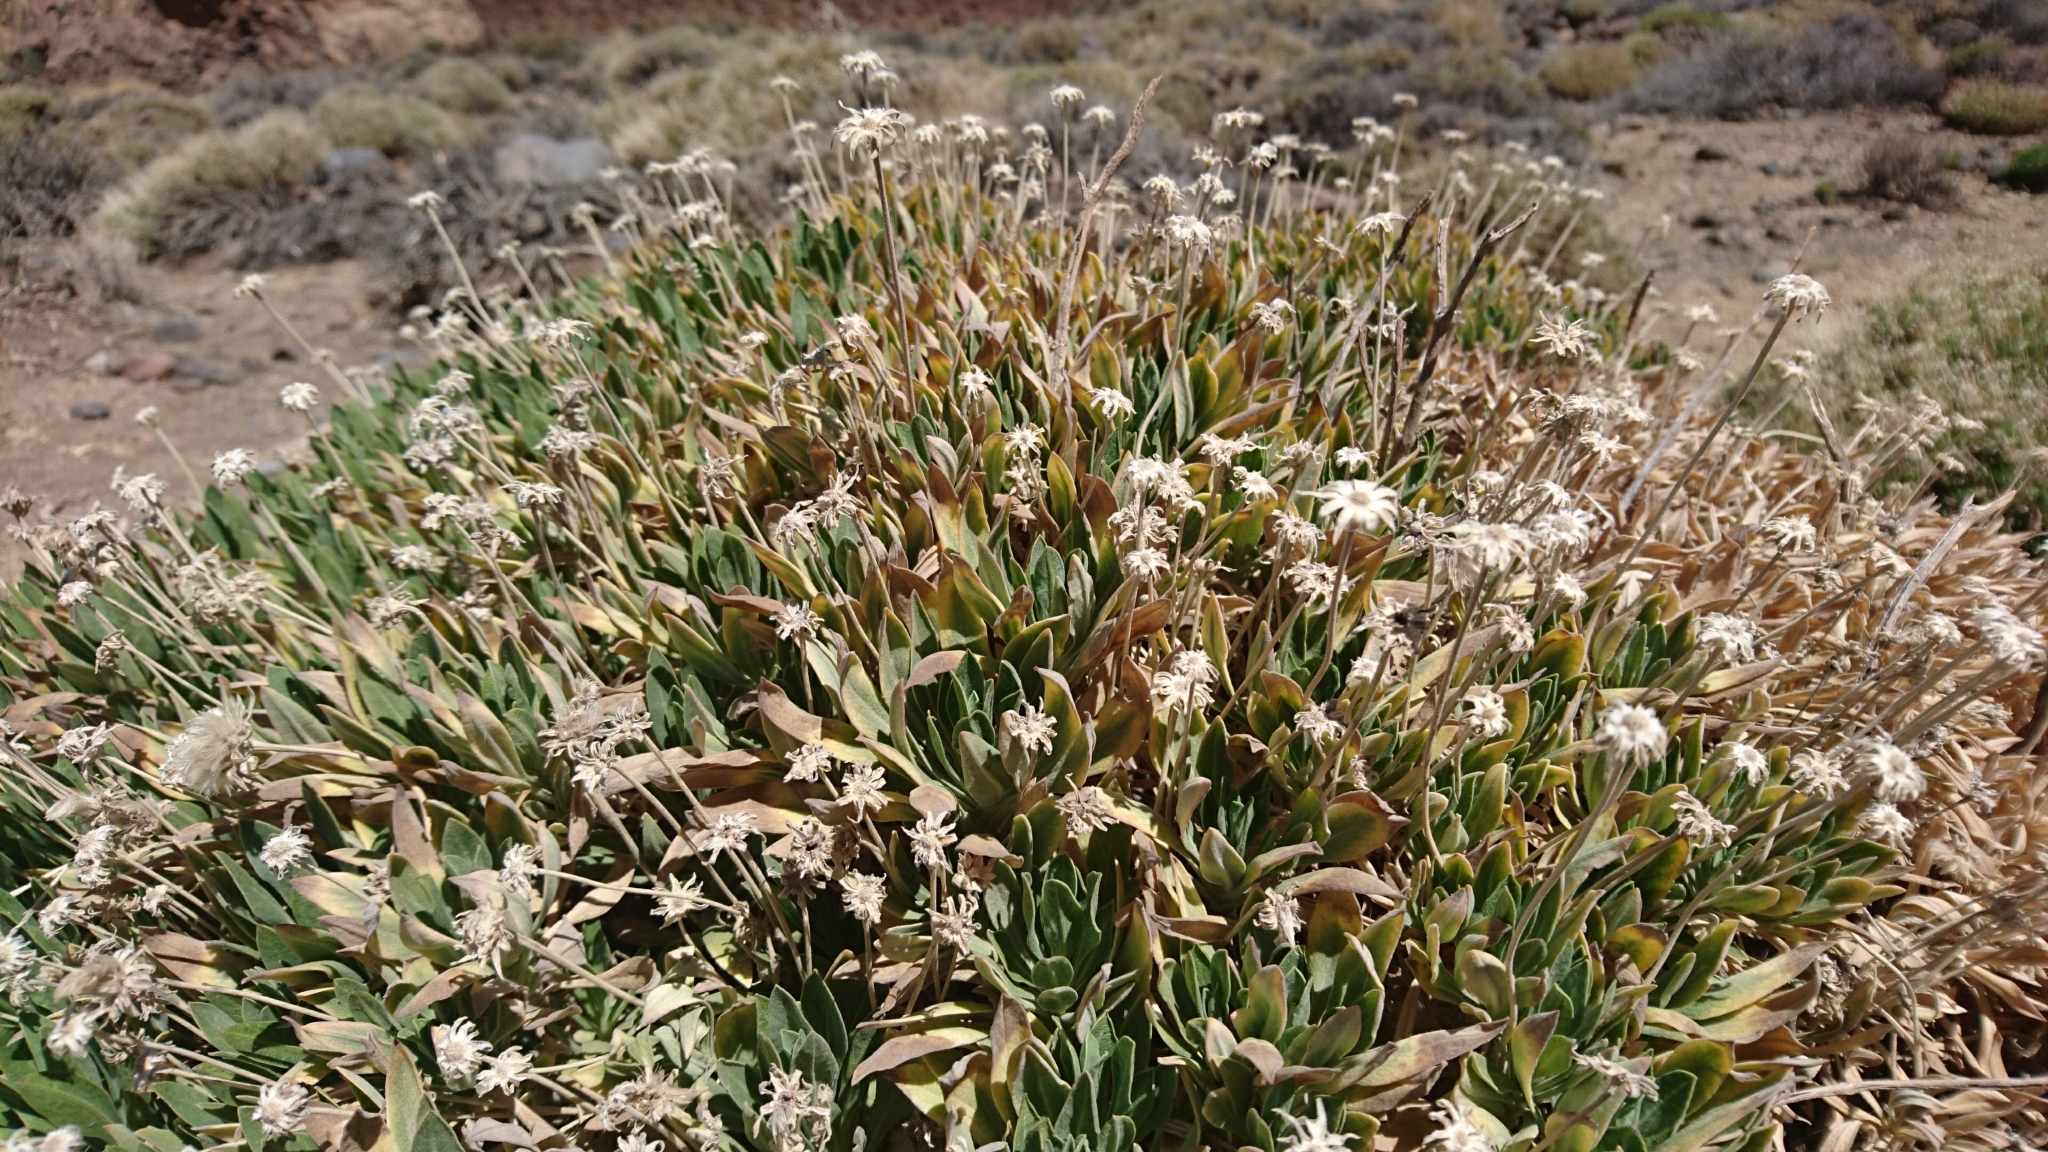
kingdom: Plantae
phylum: Tracheophyta
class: Magnoliopsida
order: Dipsacales
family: Caprifoliaceae
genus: Pterocephalus
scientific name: Pterocephalus lasiospermus
